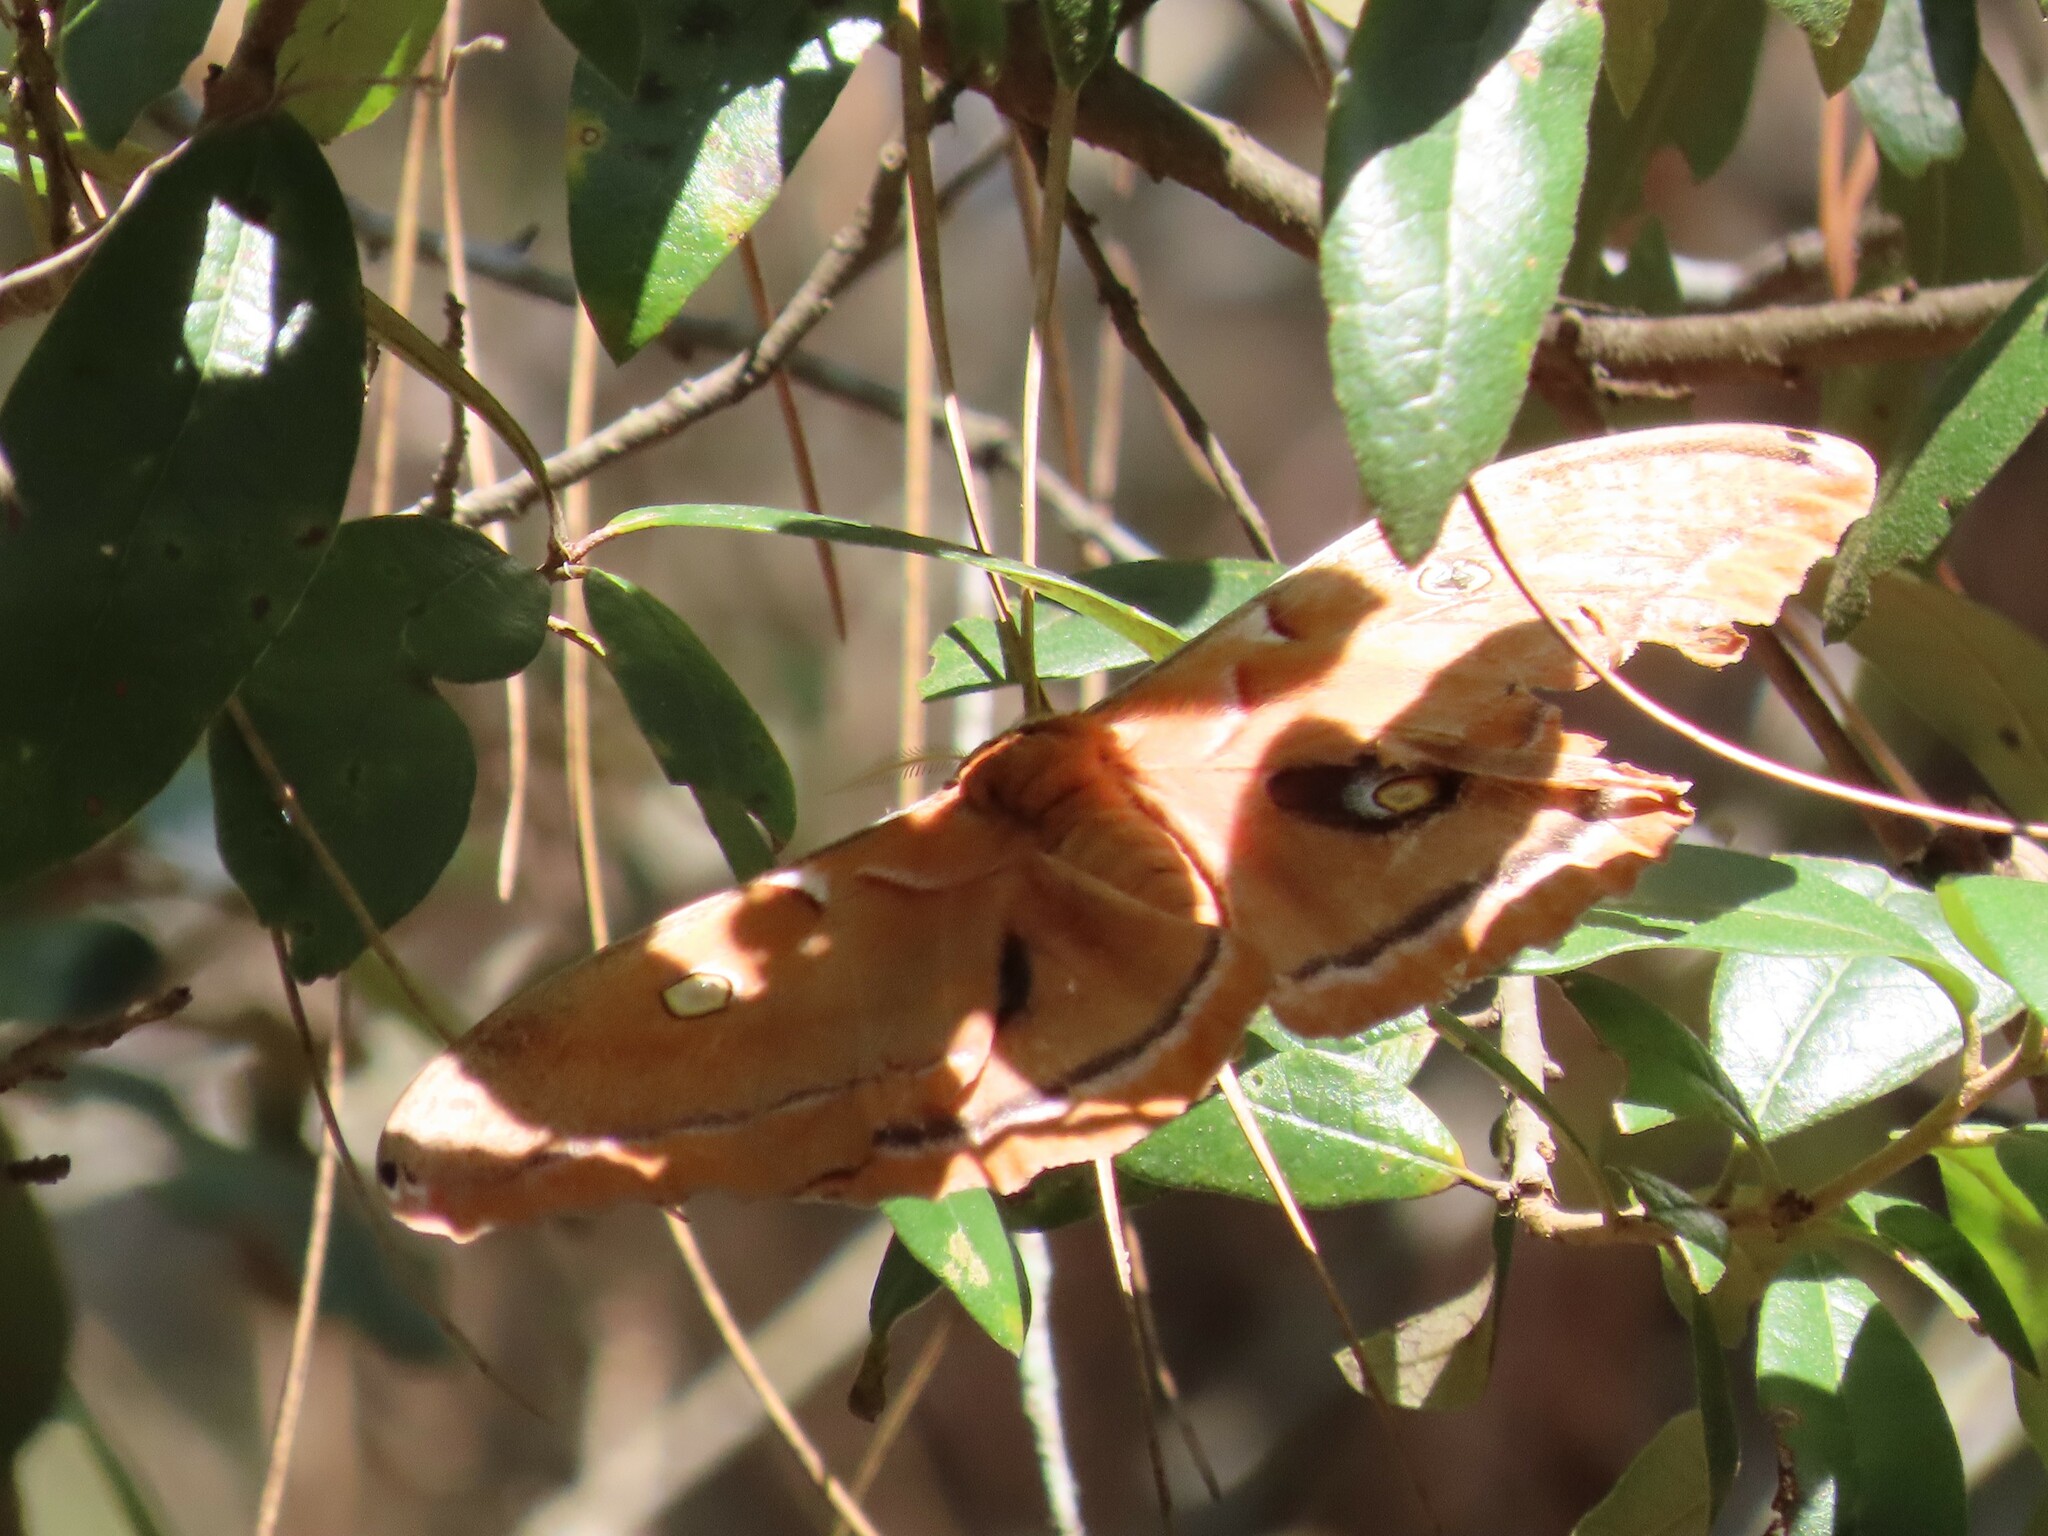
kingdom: Animalia
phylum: Arthropoda
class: Insecta
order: Lepidoptera
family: Saturniidae
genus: Antheraea
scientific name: Antheraea polyphemus
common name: Polyphemus moth
